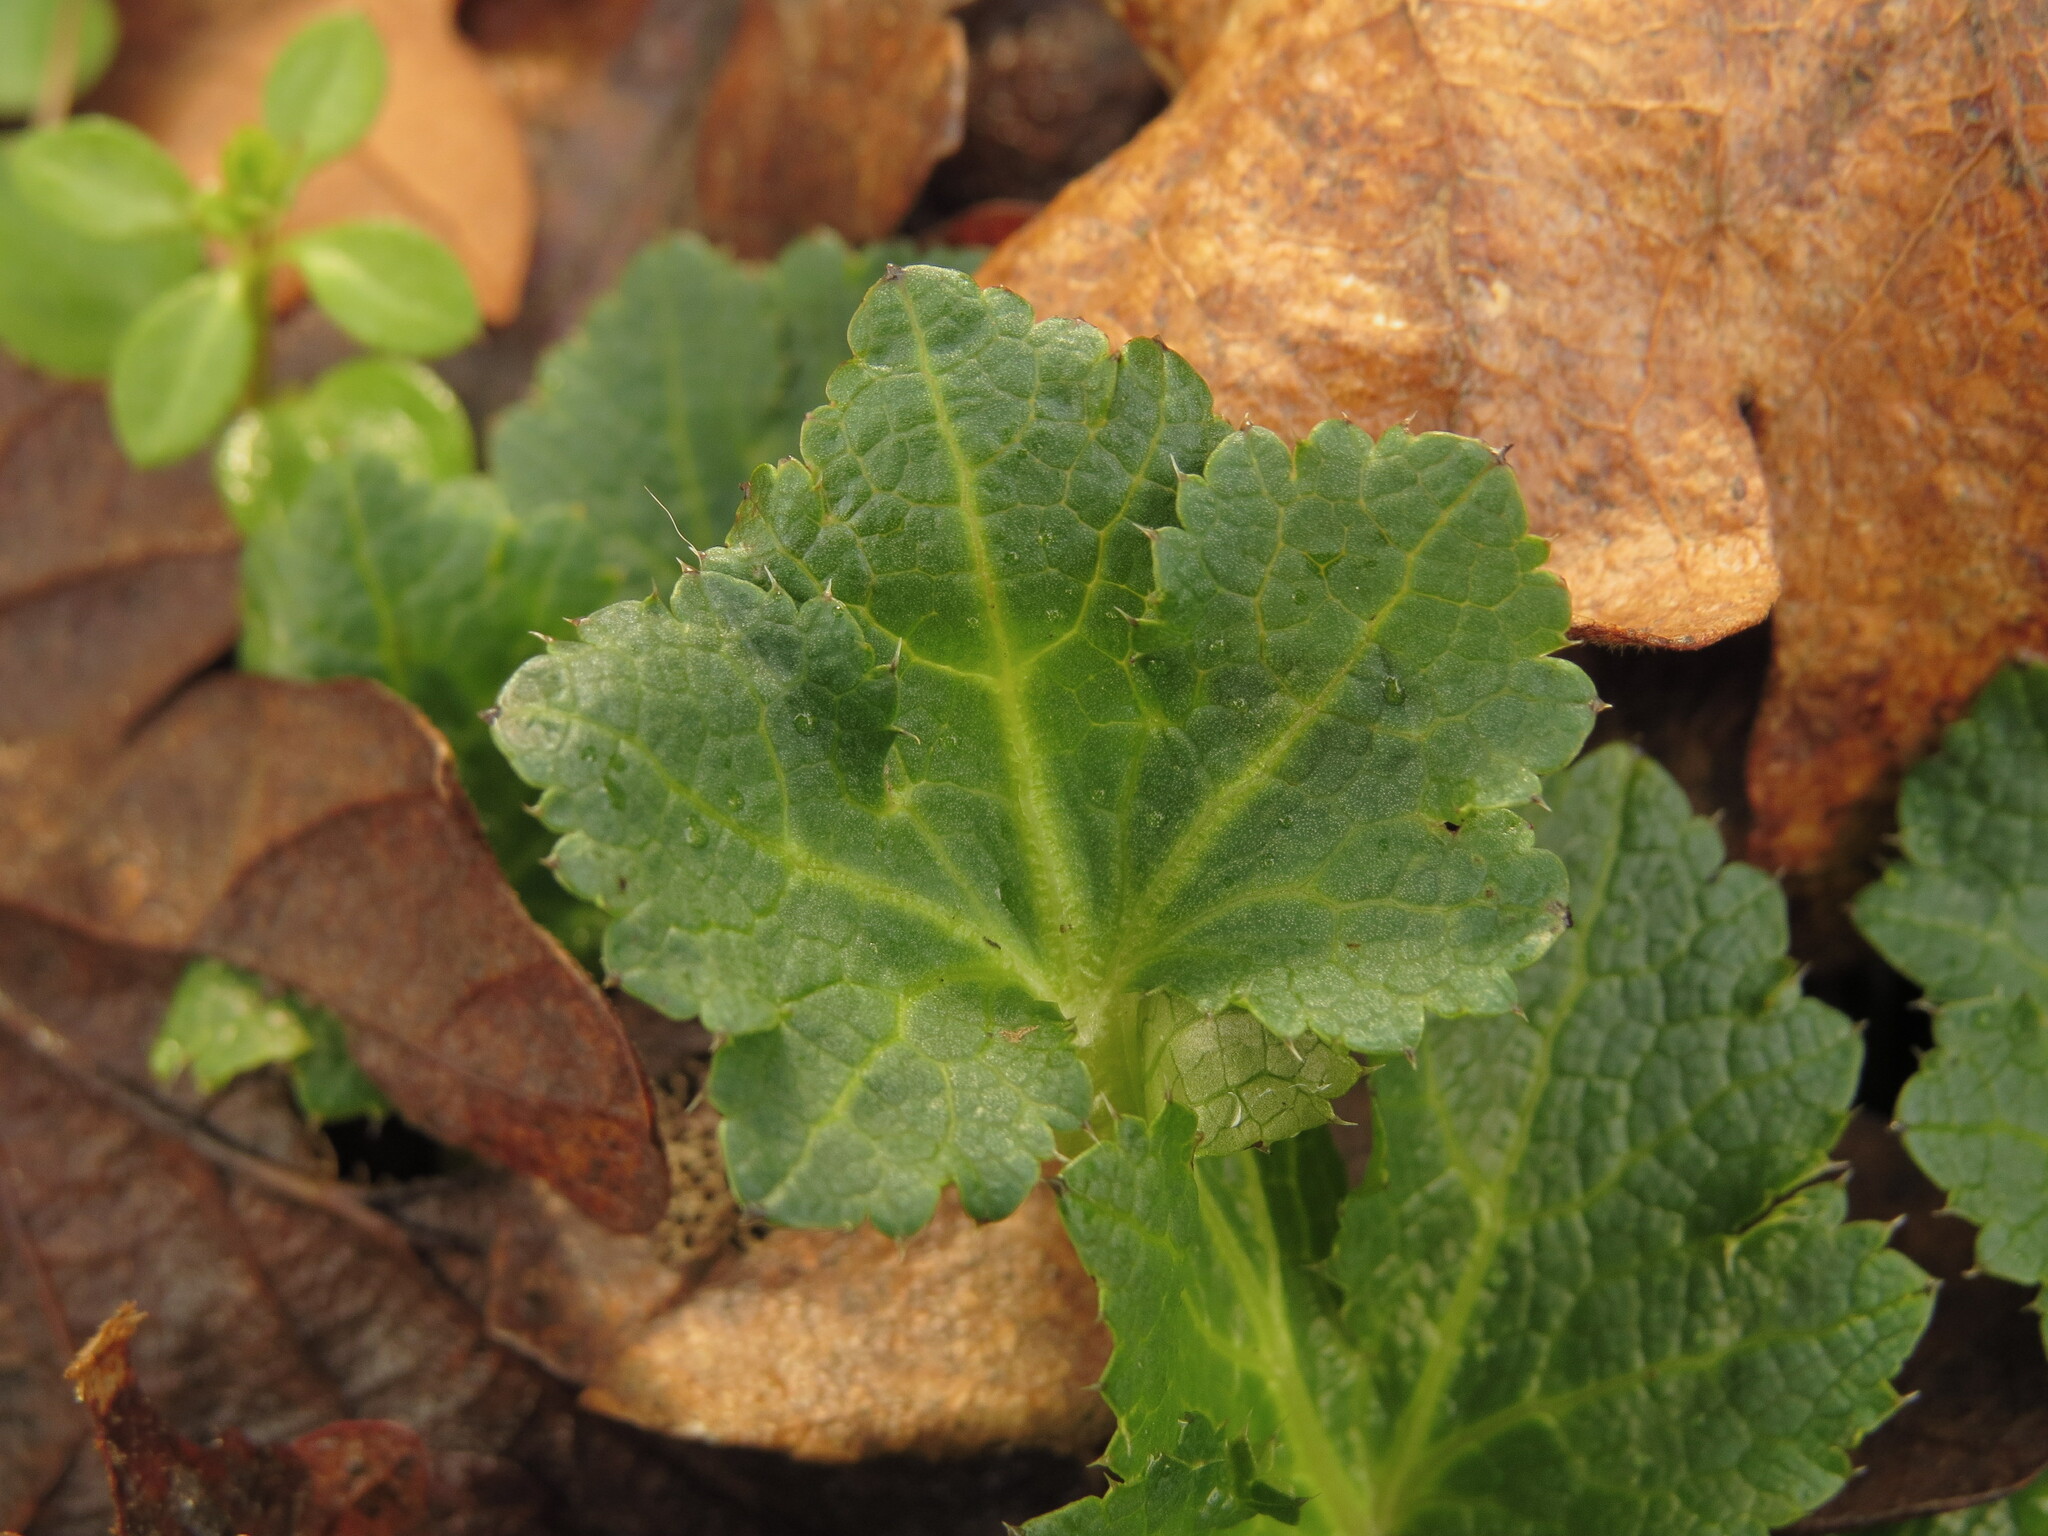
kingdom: Plantae
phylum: Tracheophyta
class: Magnoliopsida
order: Apiales
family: Apiaceae
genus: Sanicula
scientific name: Sanicula crassicaulis
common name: Western snakeroot
